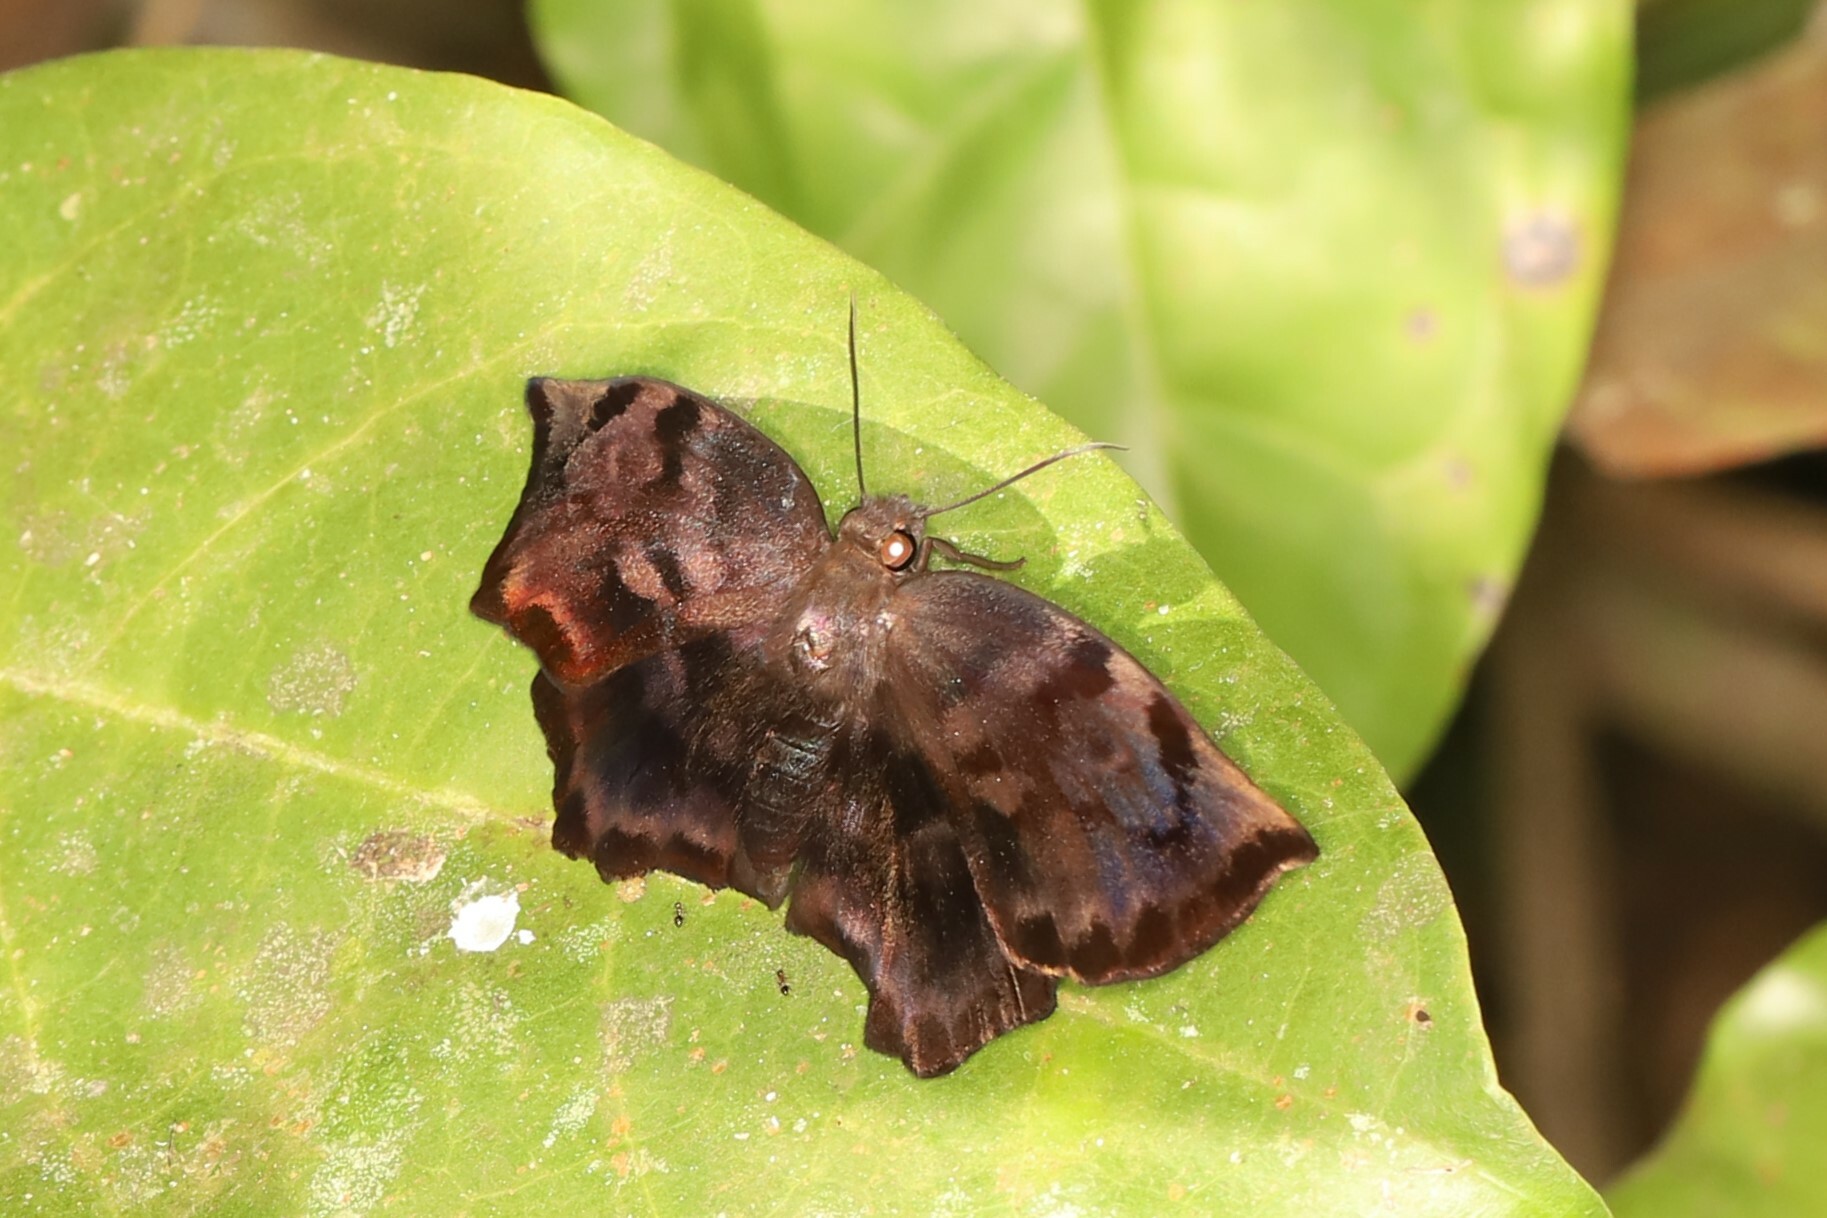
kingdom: Animalia
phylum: Arthropoda
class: Insecta
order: Lepidoptera
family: Hesperiidae
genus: Achlyodes
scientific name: Achlyodes busirus
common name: Giant sicklewing
